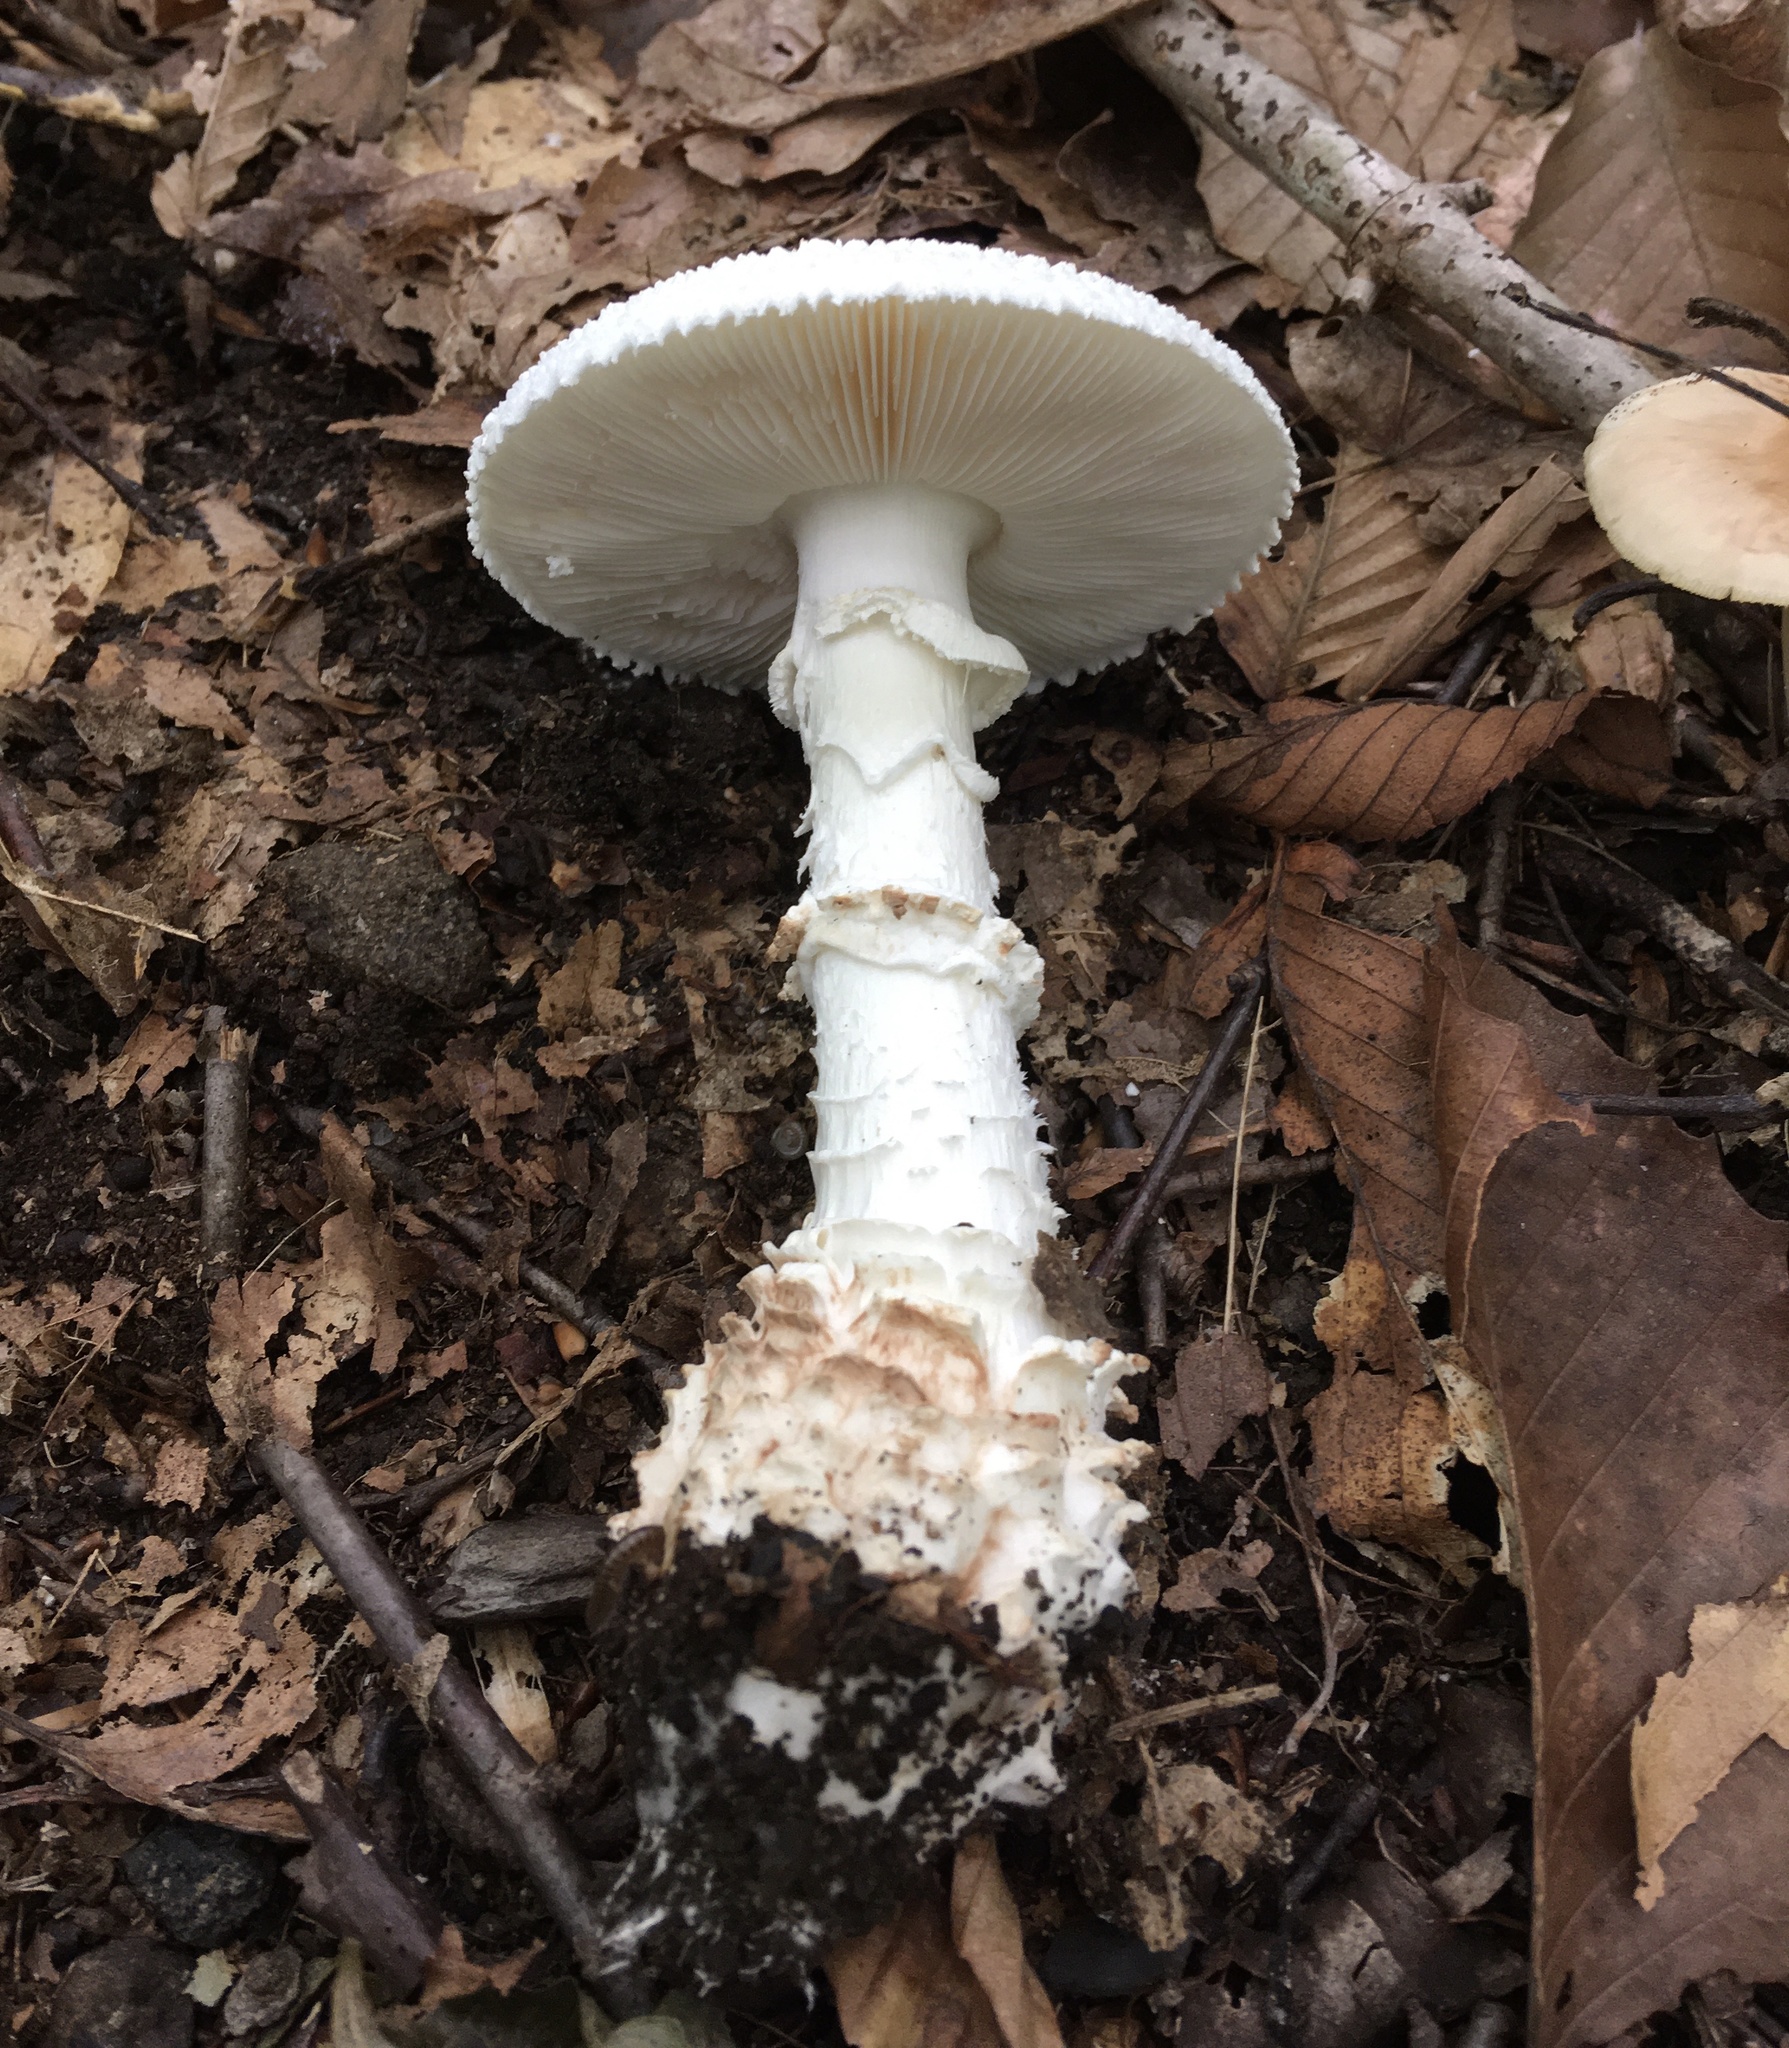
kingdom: Fungi
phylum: Basidiomycota
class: Agaricomycetes
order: Agaricales
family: Amanitaceae
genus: Amanita
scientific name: Amanita cokeri
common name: Coker's amanita
